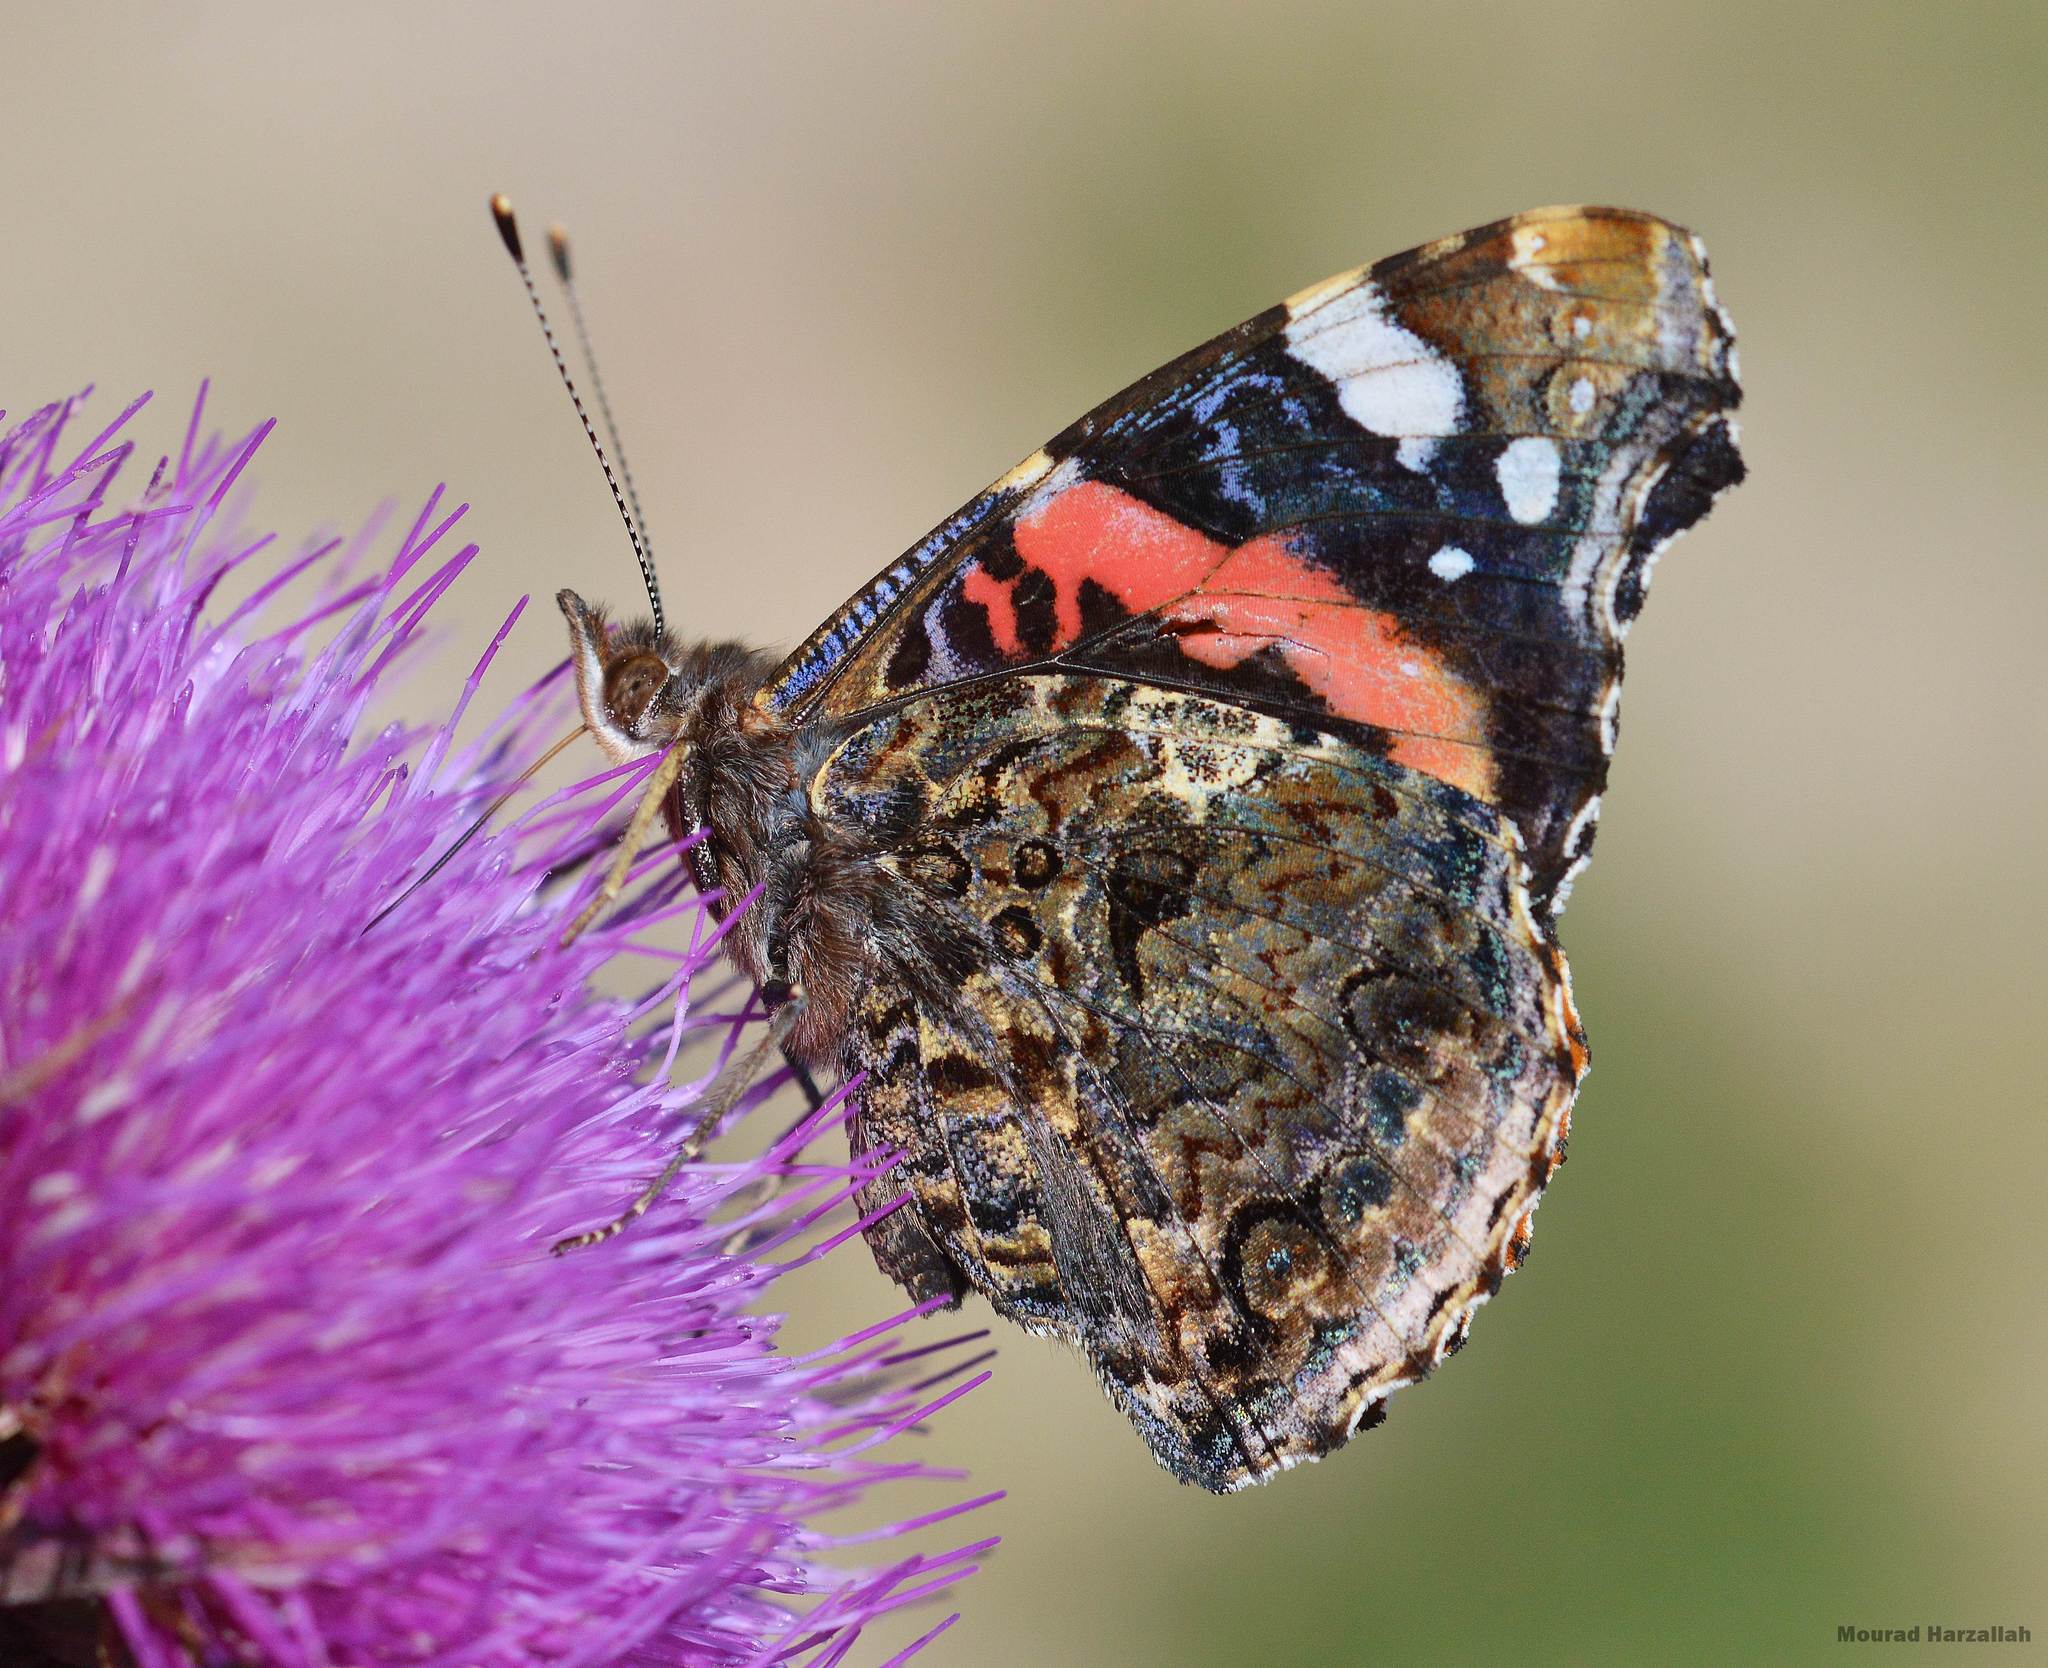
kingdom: Animalia
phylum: Arthropoda
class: Insecta
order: Lepidoptera
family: Nymphalidae
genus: Vanessa
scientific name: Vanessa atalanta
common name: Red admiral
